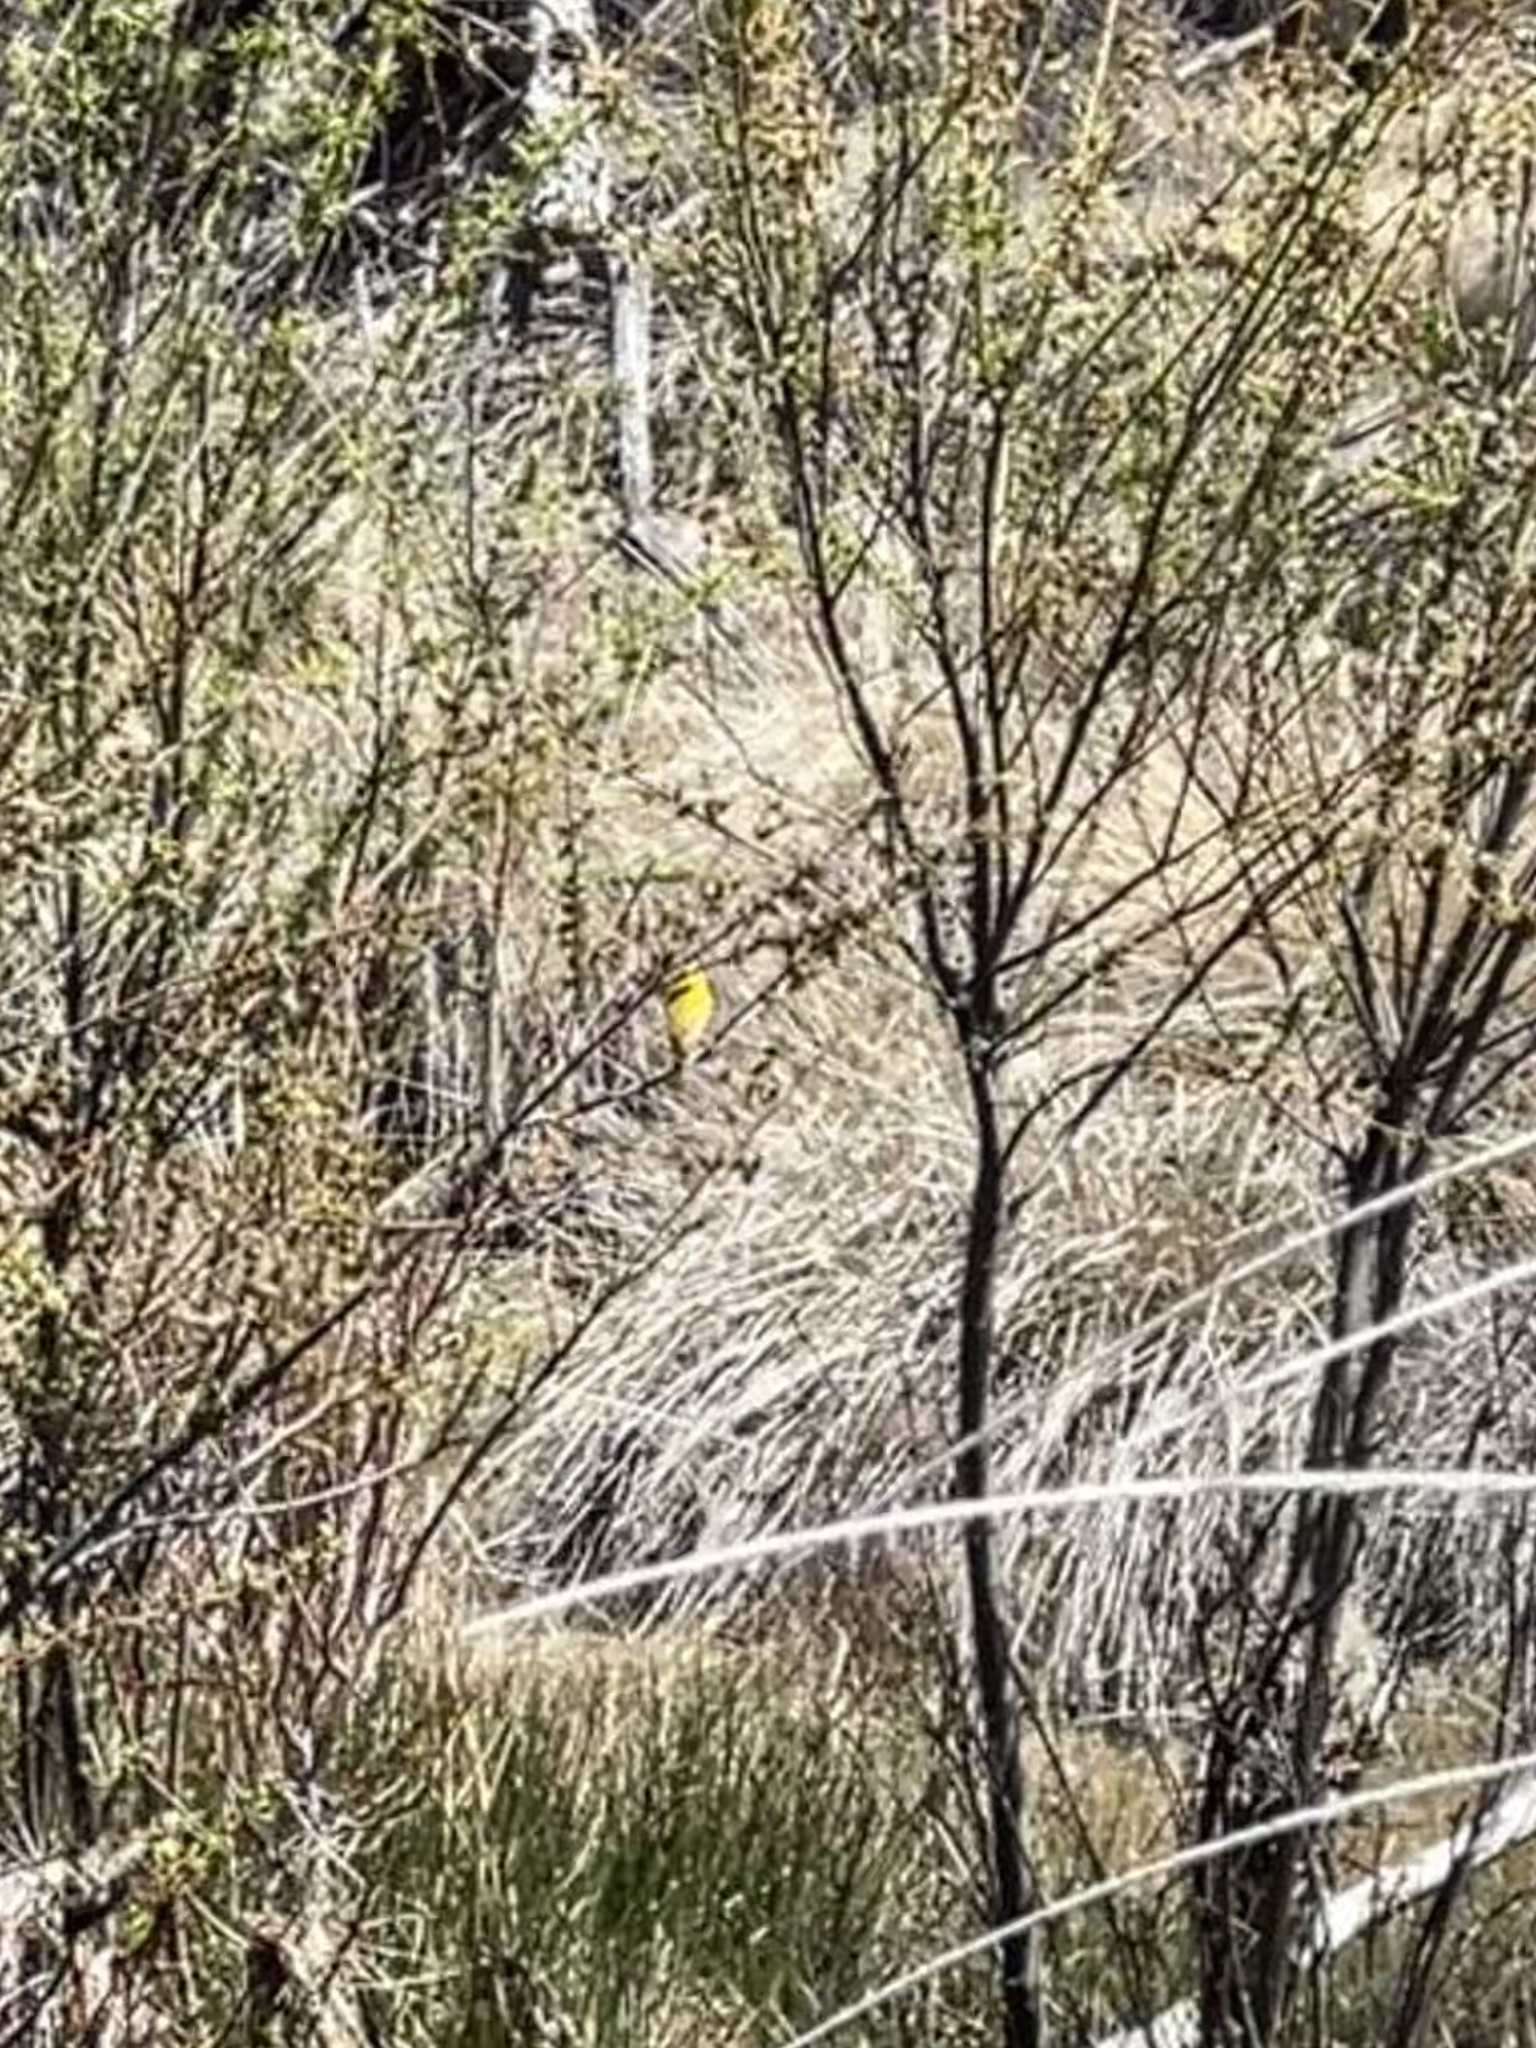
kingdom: Animalia
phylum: Chordata
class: Aves
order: Passeriformes
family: Parulidae
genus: Setophaga
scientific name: Setophaga petechia
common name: Yellow warbler
